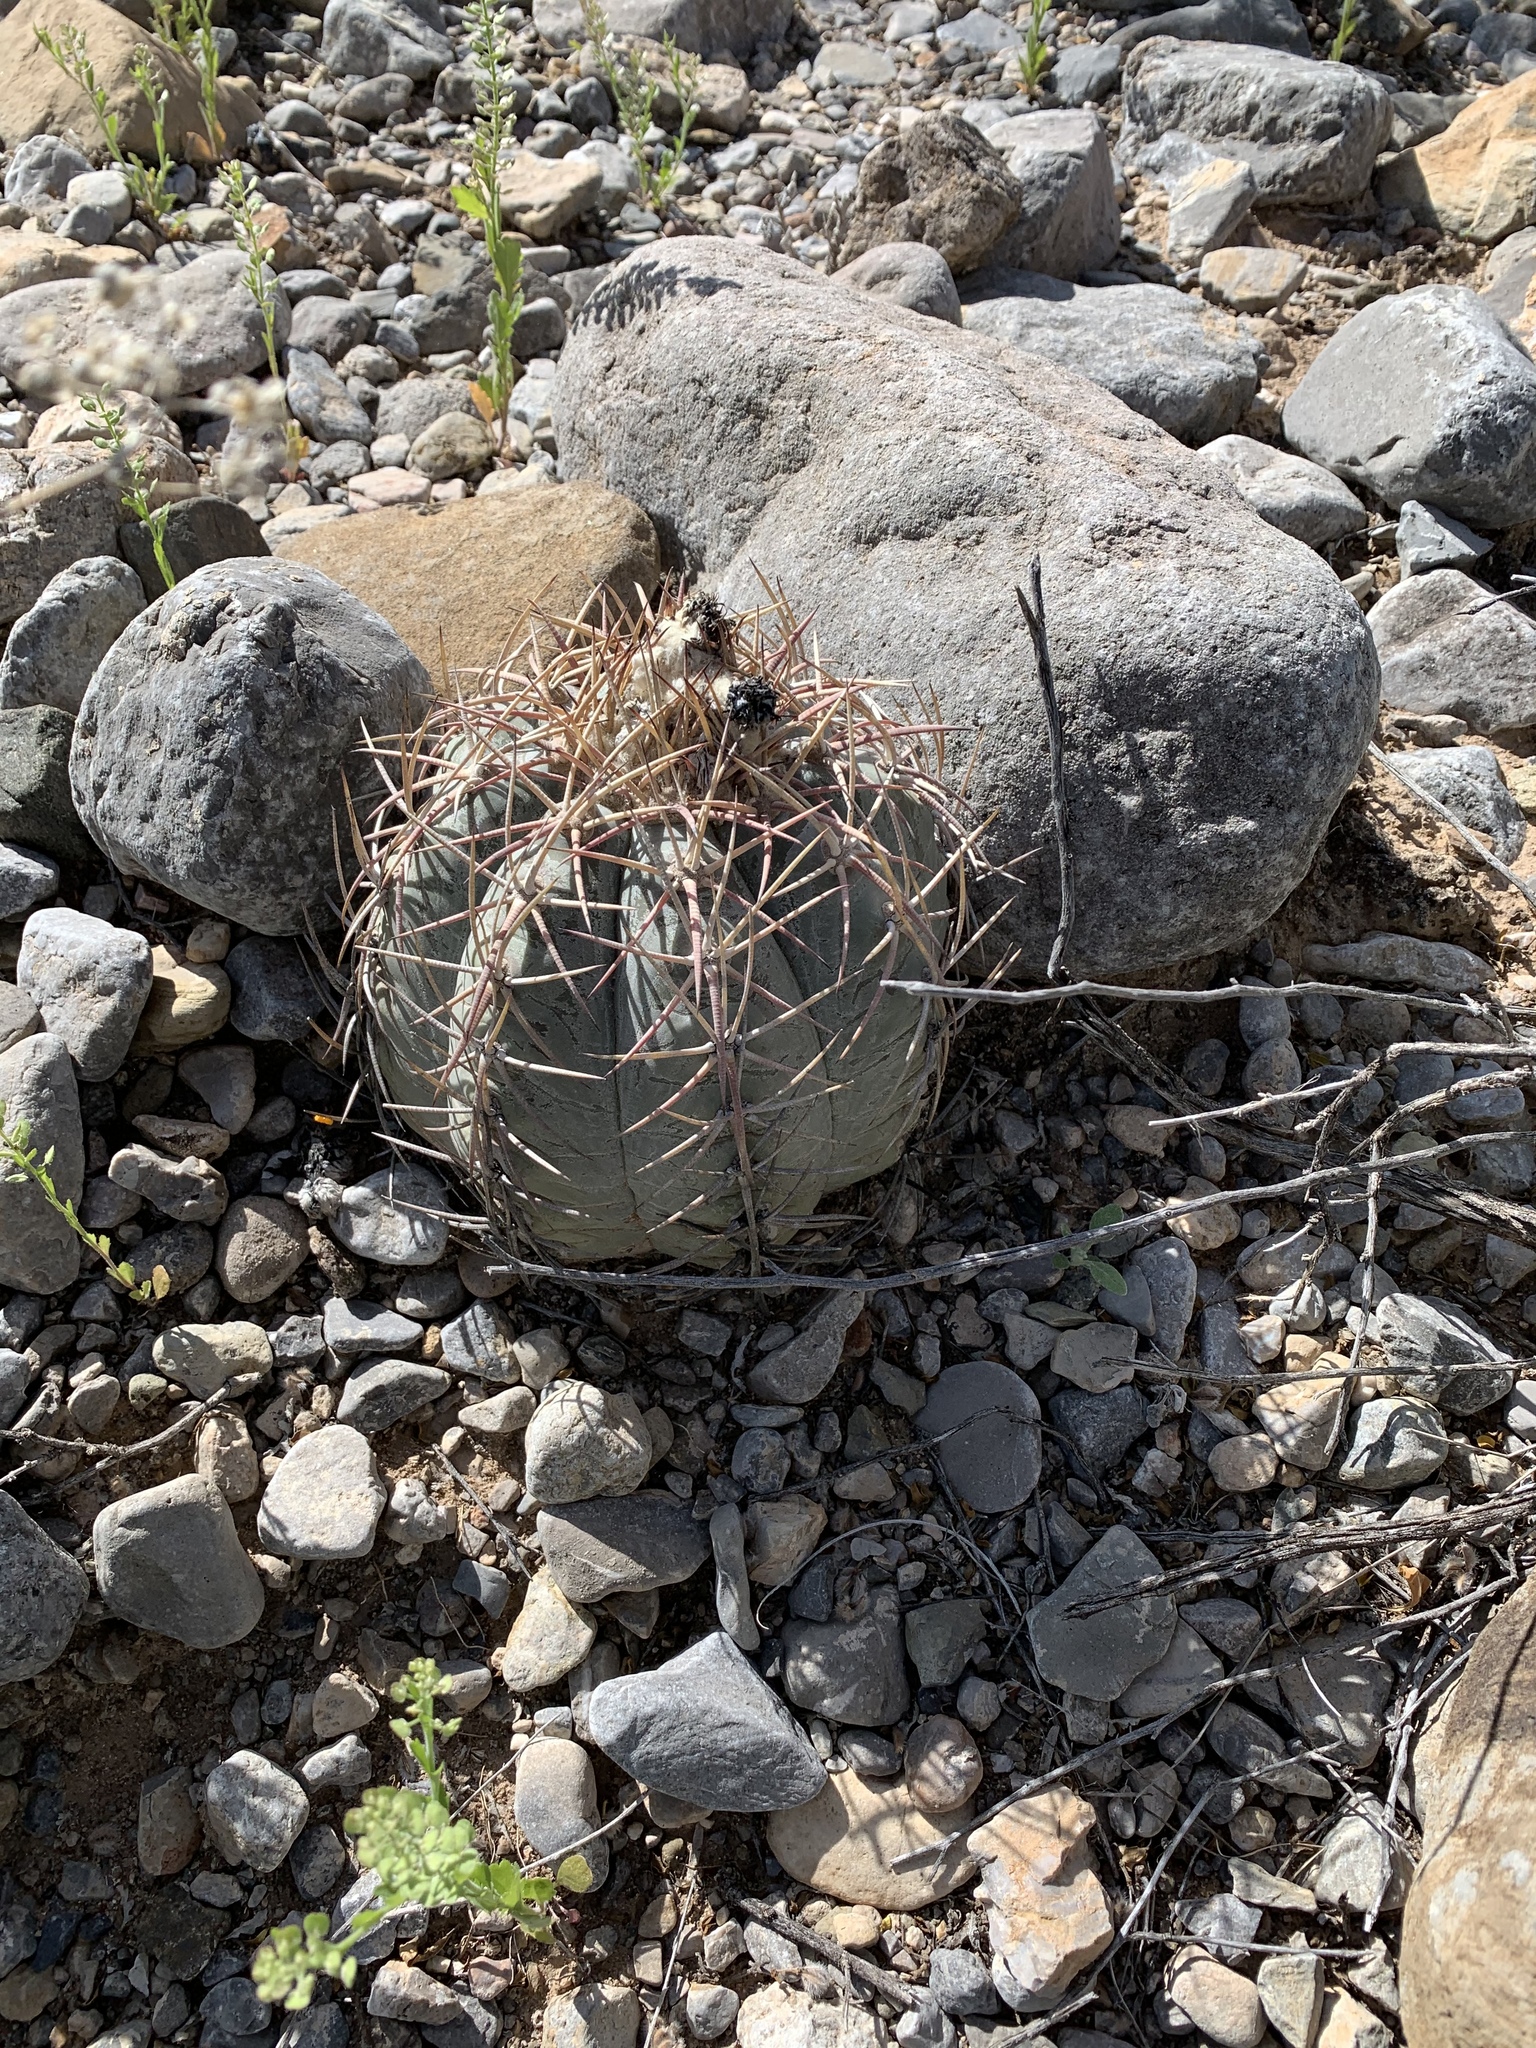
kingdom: Plantae
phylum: Tracheophyta
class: Magnoliopsida
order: Caryophyllales
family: Cactaceae
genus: Echinocactus
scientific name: Echinocactus horizonthalonius
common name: Devilshead
